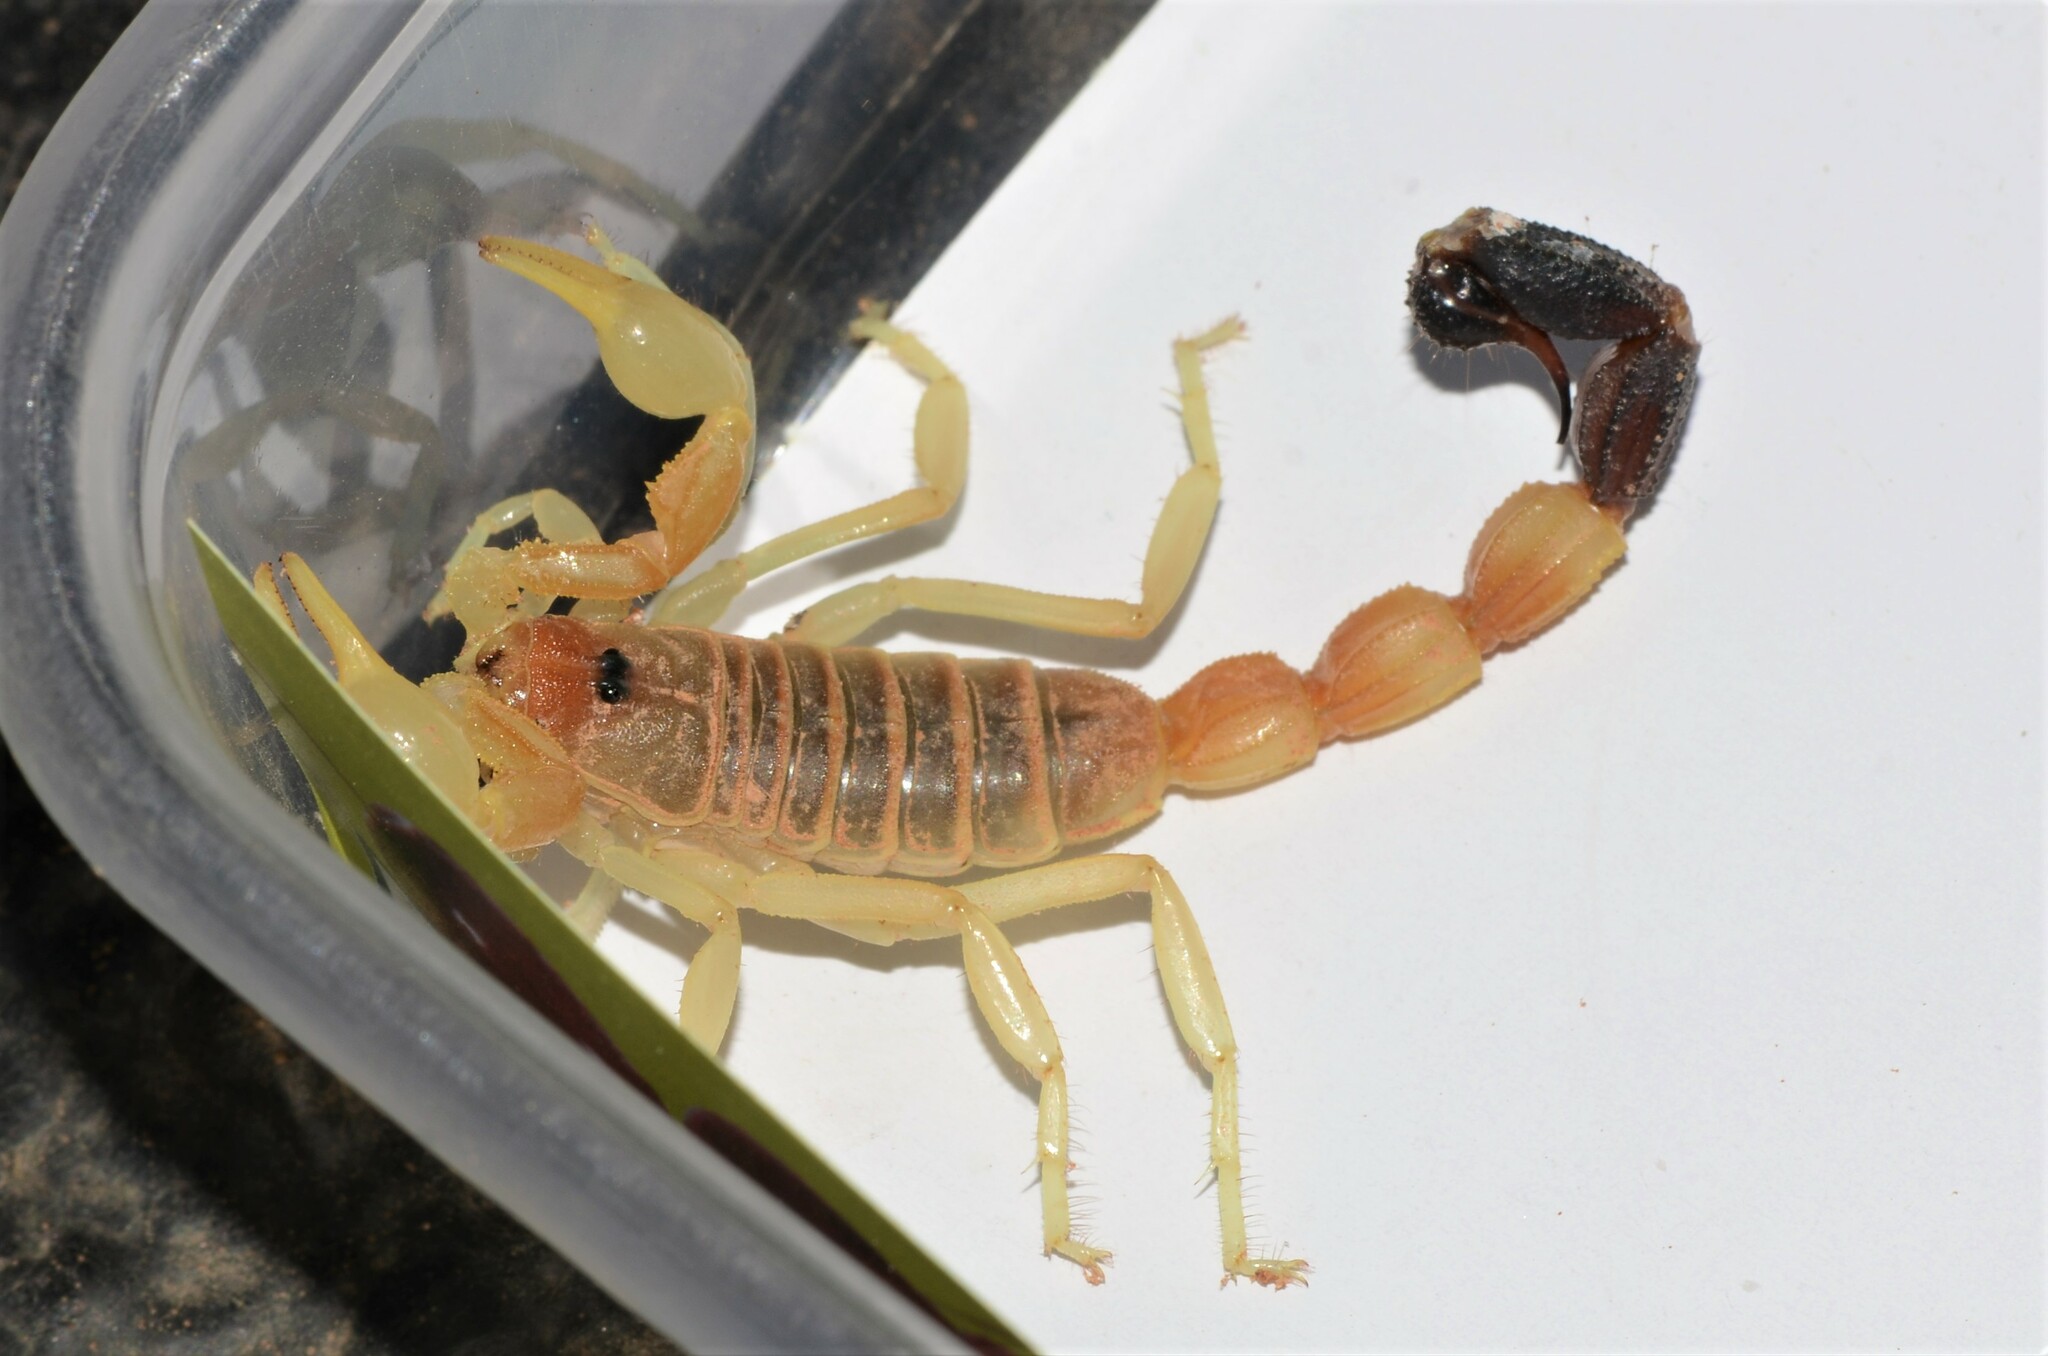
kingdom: Animalia
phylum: Arthropoda
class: Arachnida
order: Scorpiones
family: Buthidae
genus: Parabuthus
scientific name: Parabuthus laevifrons
